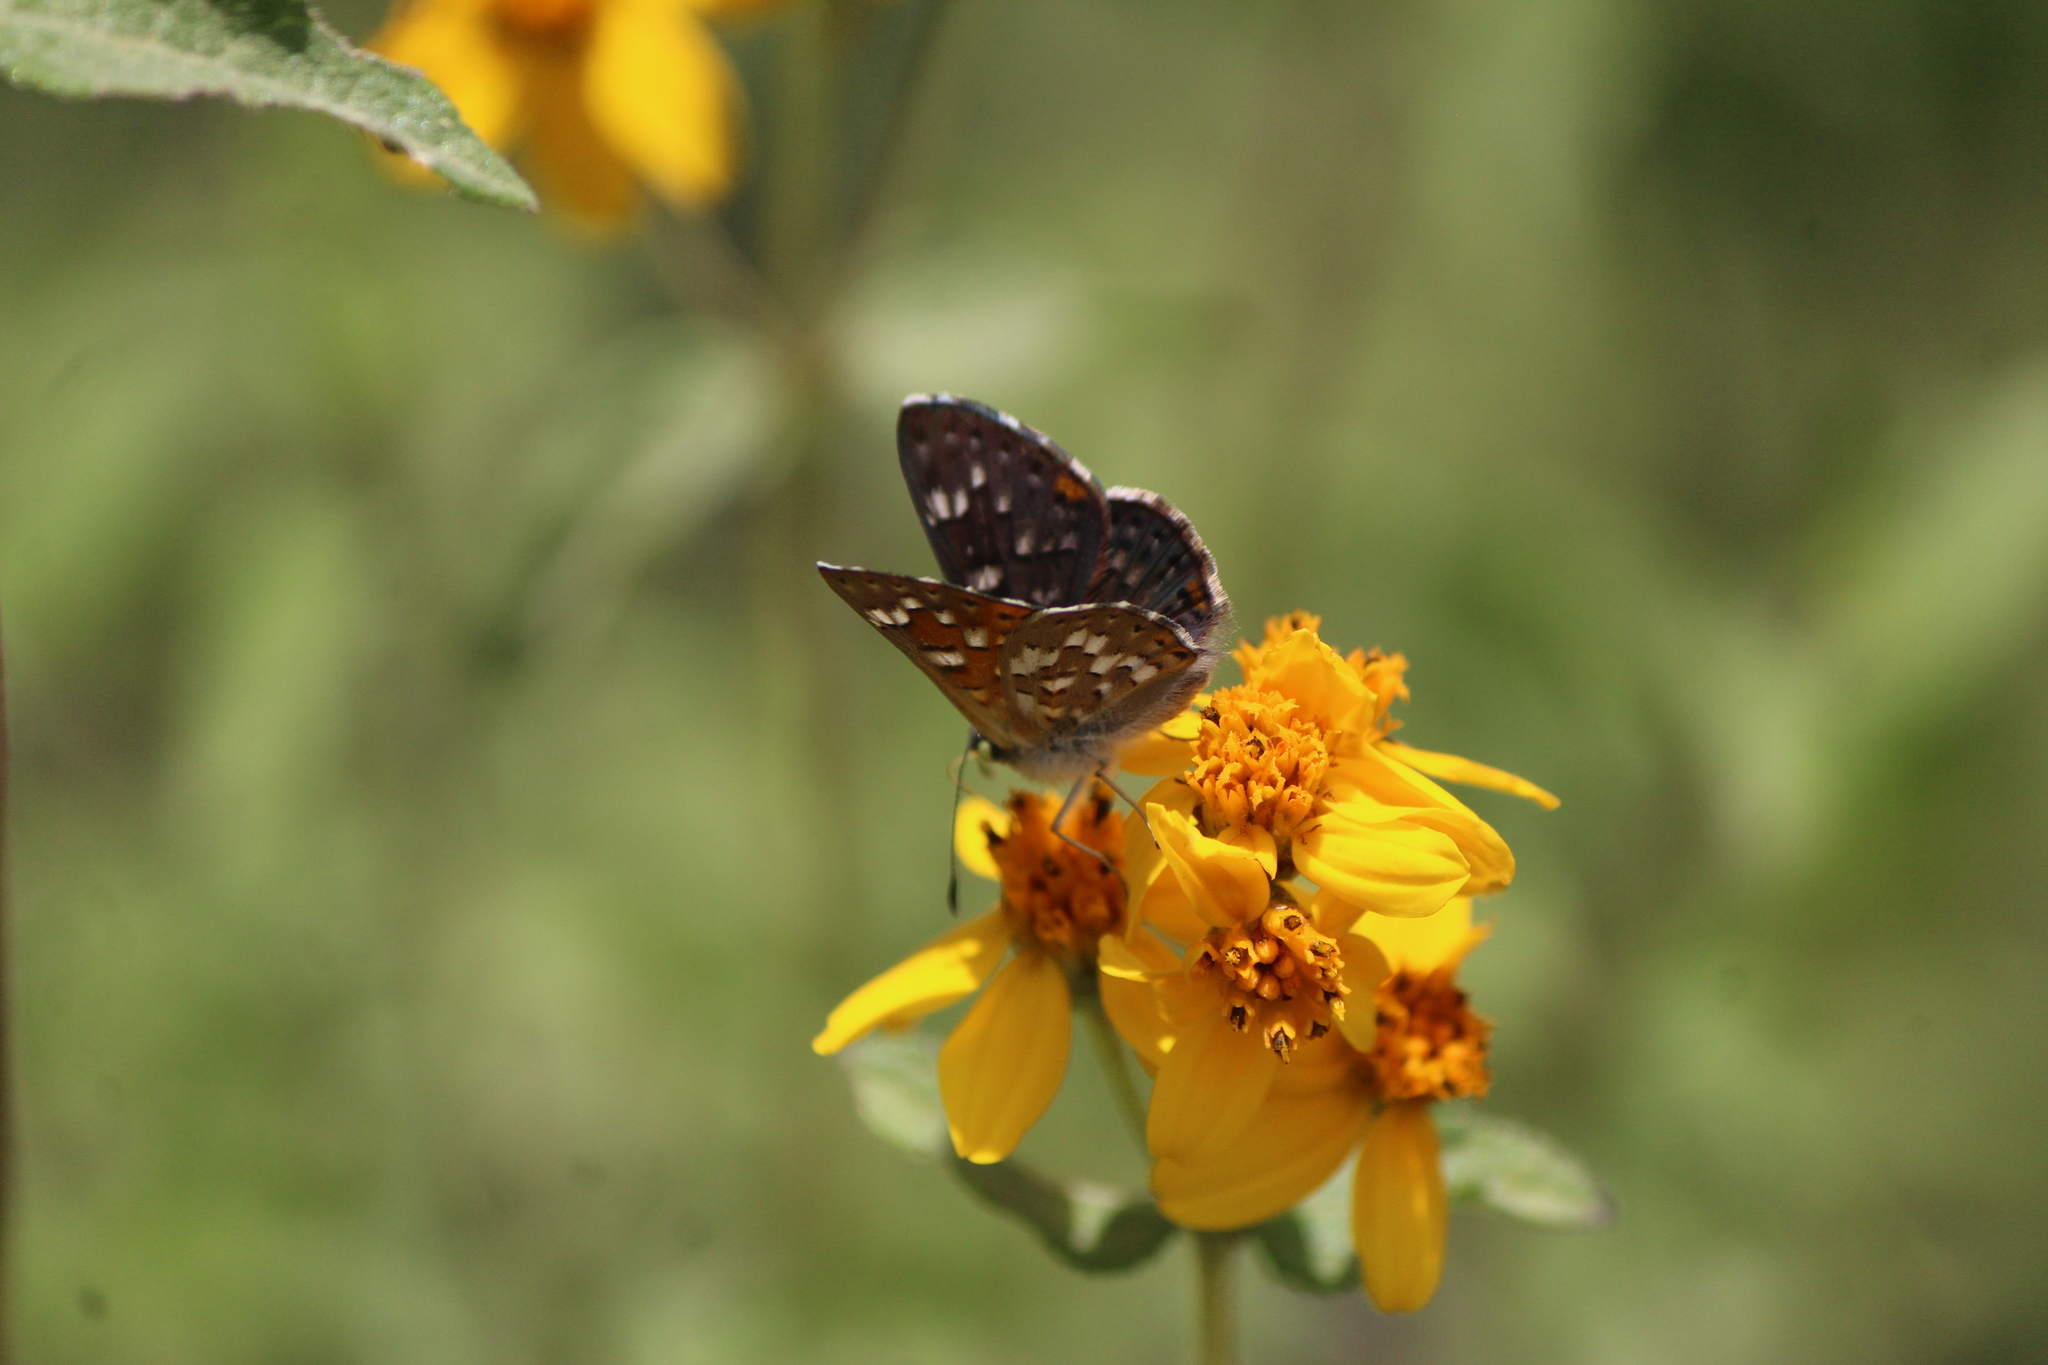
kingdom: Animalia
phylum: Arthropoda
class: Insecta
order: Lepidoptera
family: Riodinidae
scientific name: Riodinidae
